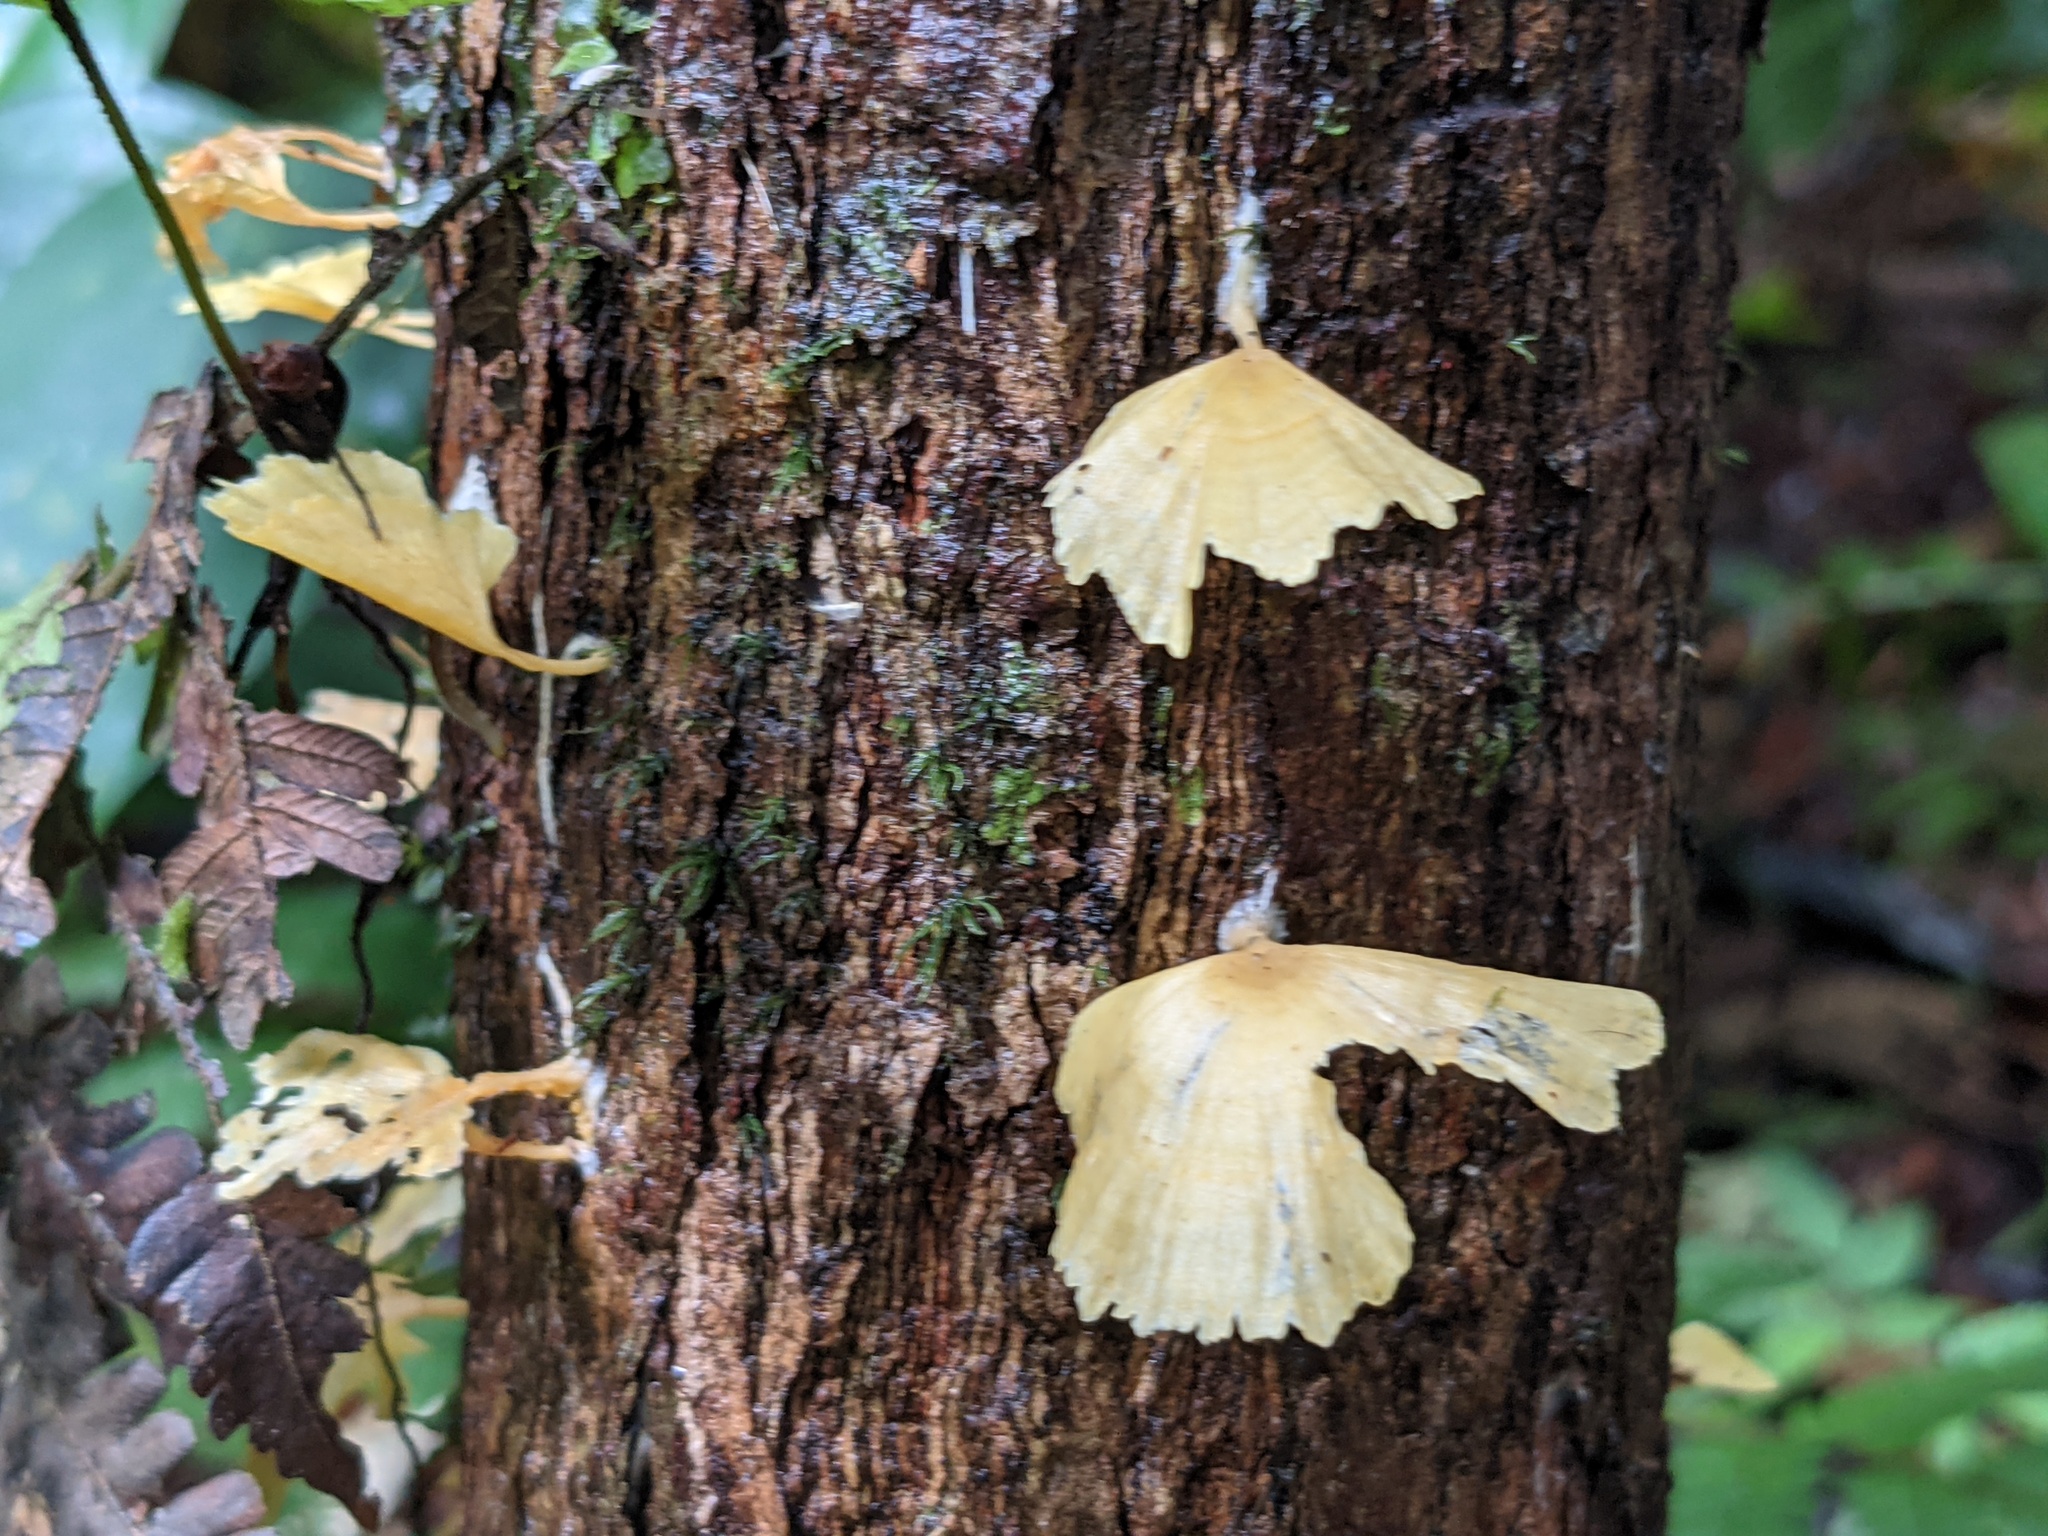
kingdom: Fungi
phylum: Basidiomycota
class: Agaricomycetes
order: Hymenochaetales
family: Rickenellaceae
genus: Cotylidia
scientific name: Cotylidia aurantiaca
